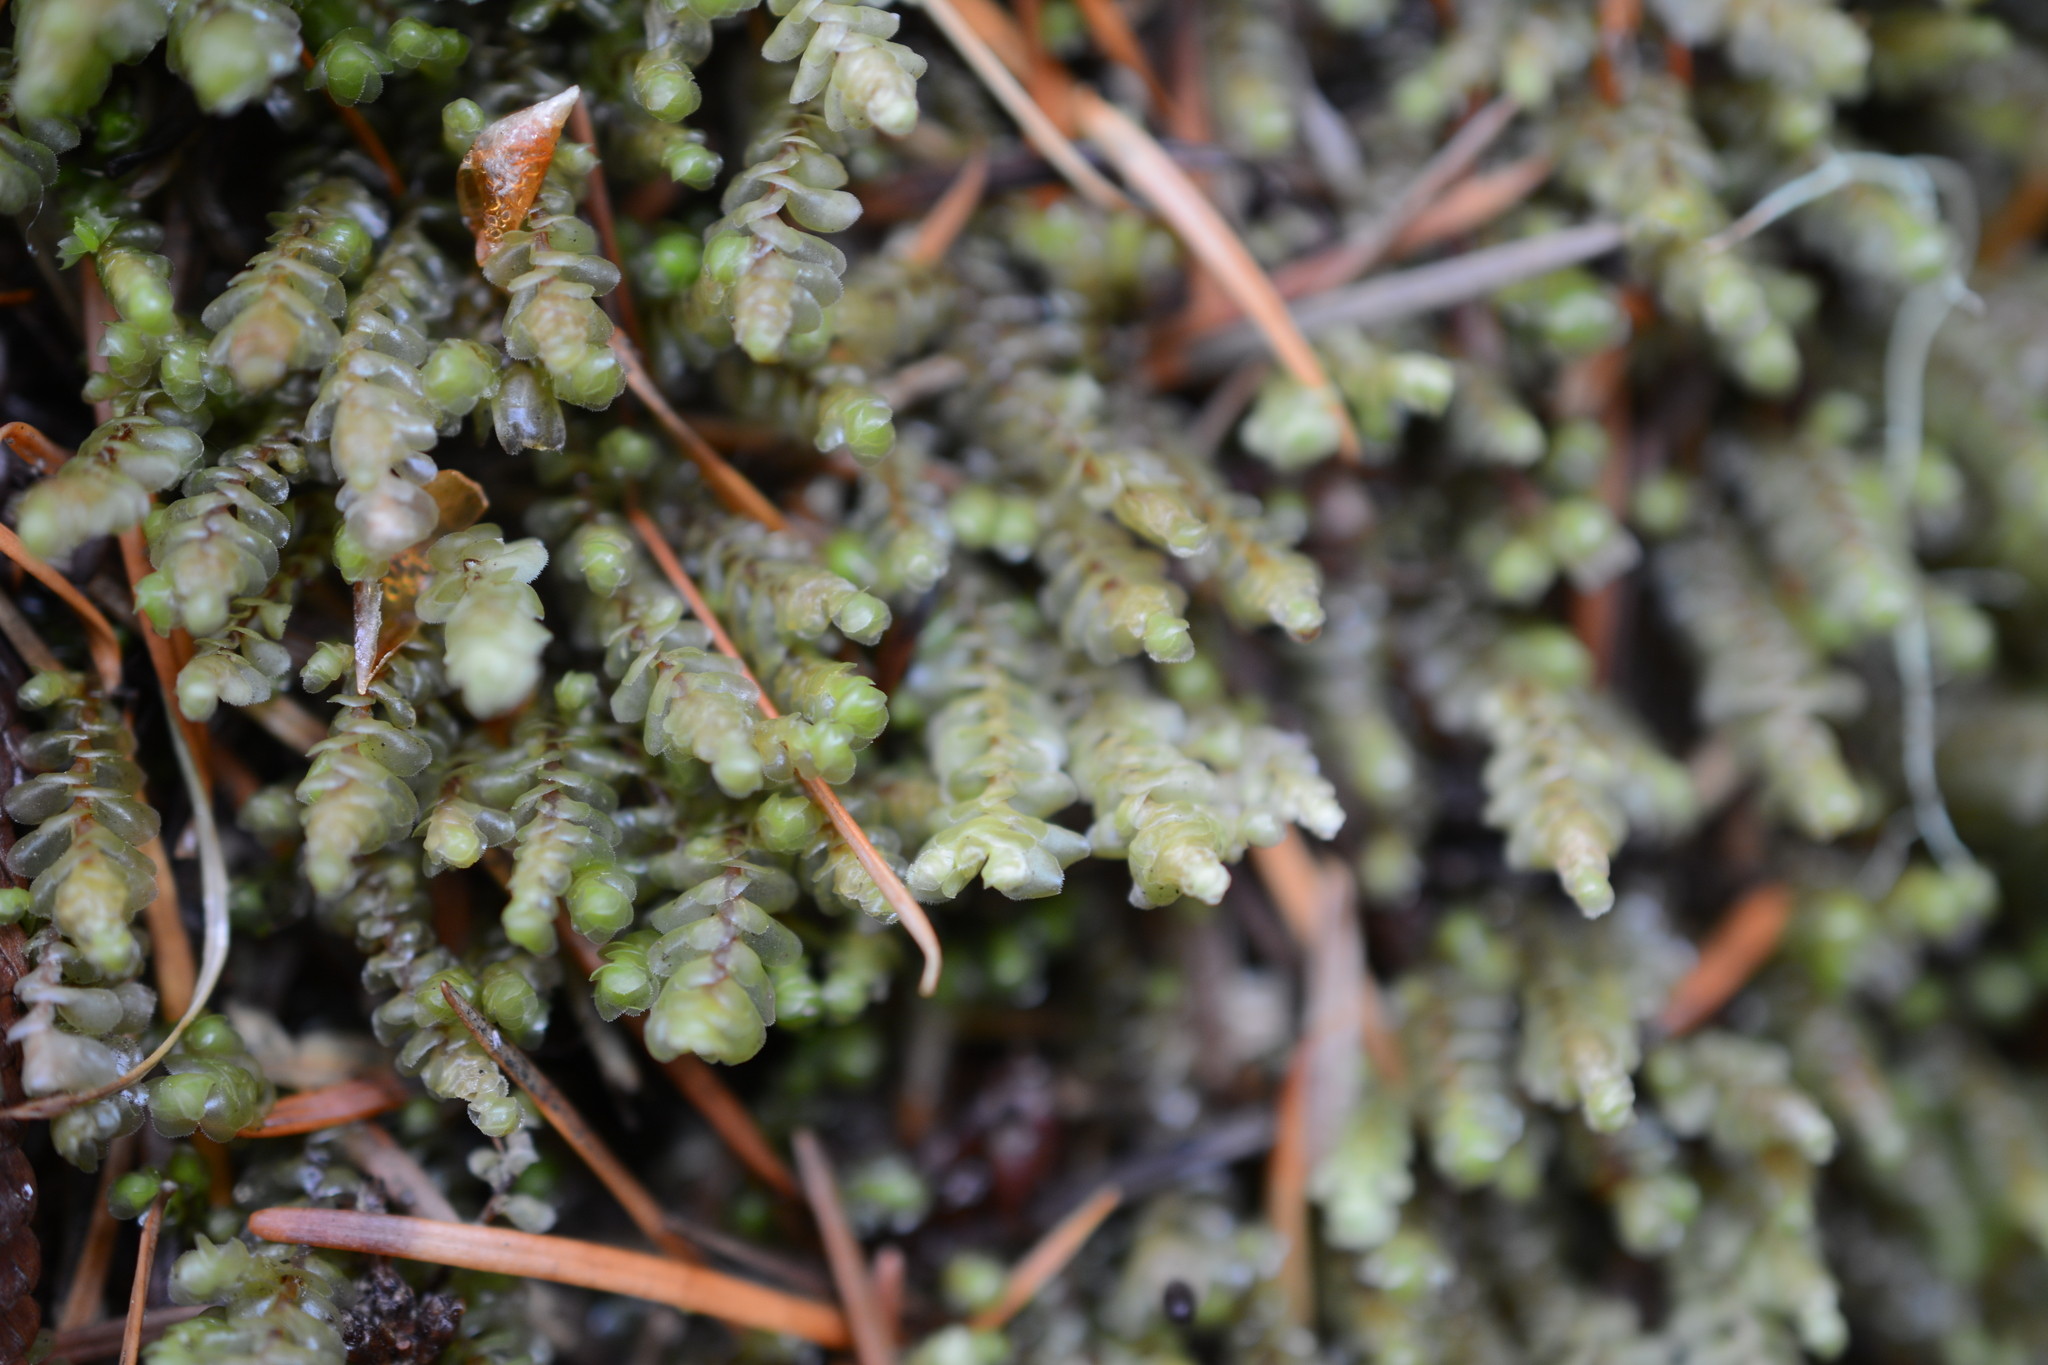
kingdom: Plantae
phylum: Marchantiophyta
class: Jungermanniopsida
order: Jungermanniales
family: Scapaniaceae
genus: Scapania
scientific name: Scapania americana
